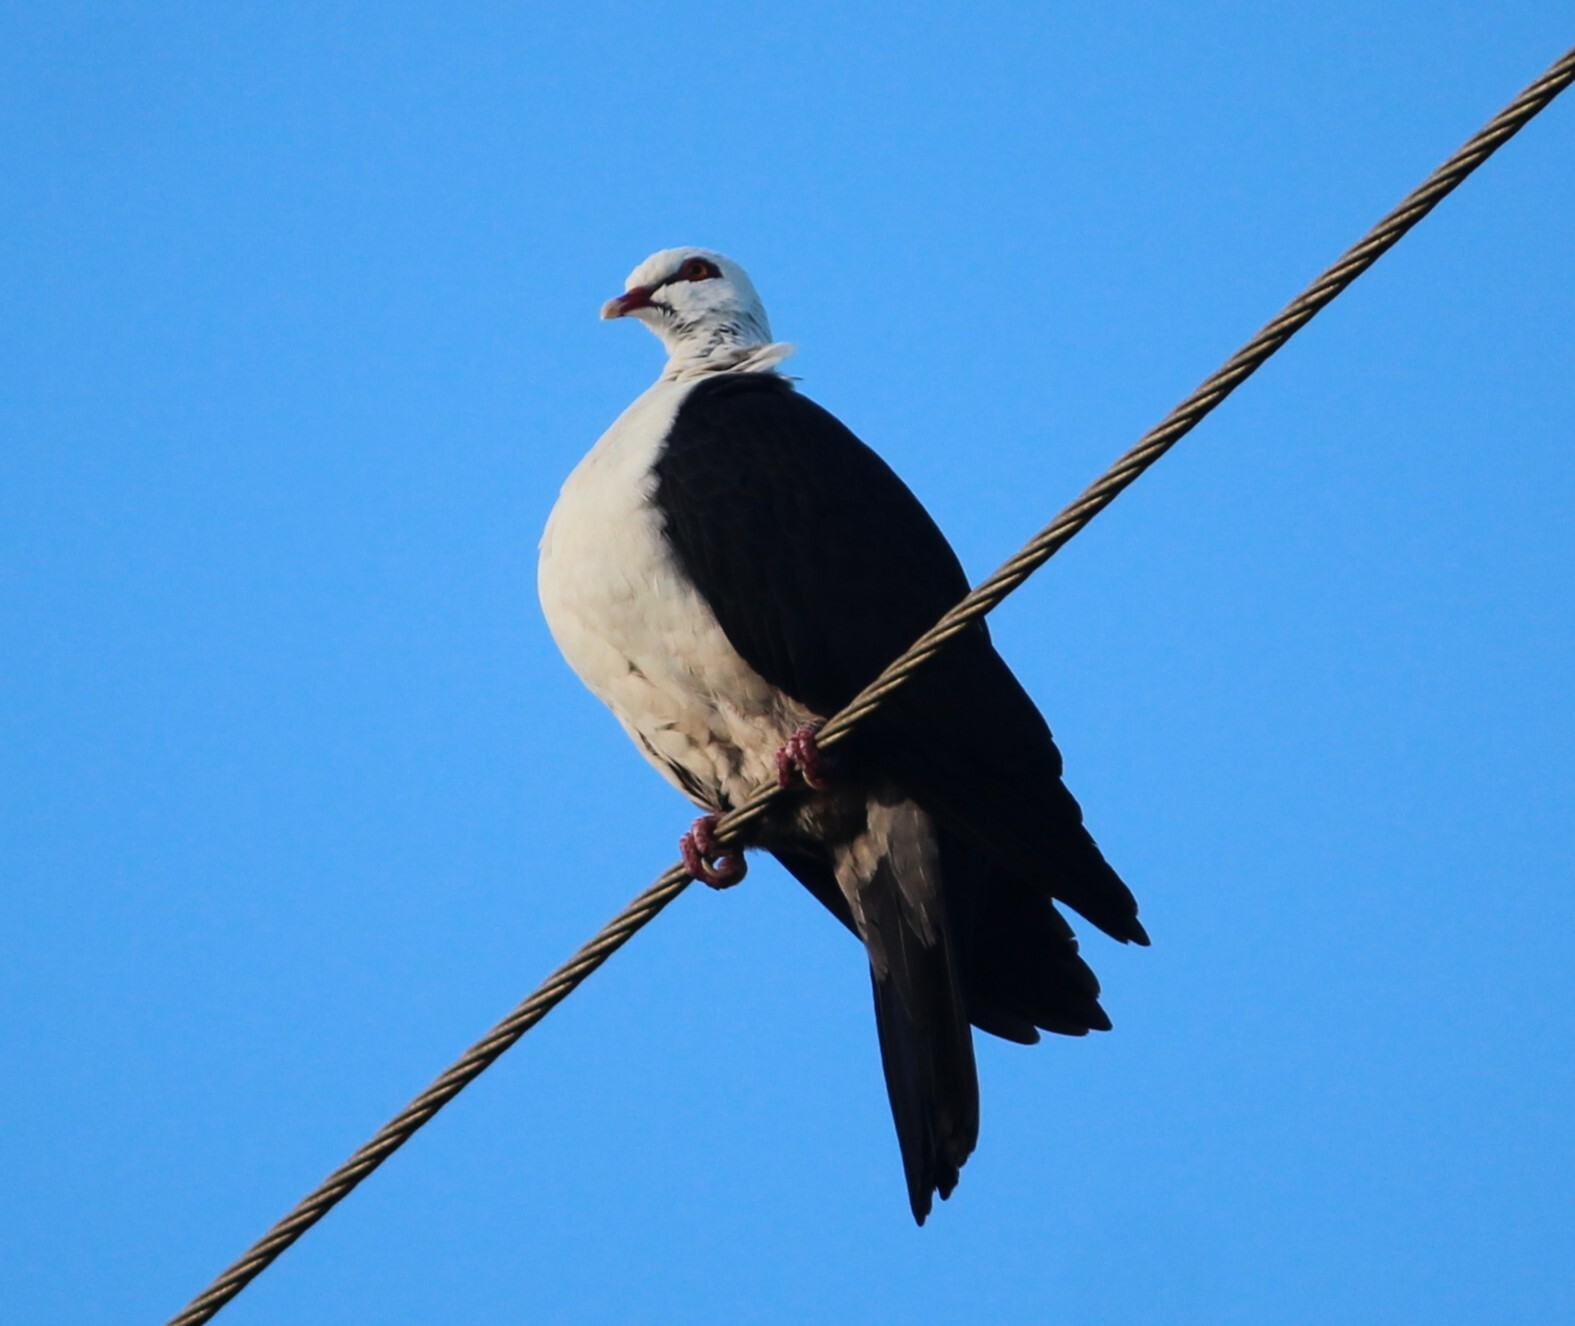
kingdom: Animalia
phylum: Chordata
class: Aves
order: Columbiformes
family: Columbidae
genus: Columba
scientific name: Columba leucomela
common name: White-headed pigeon
